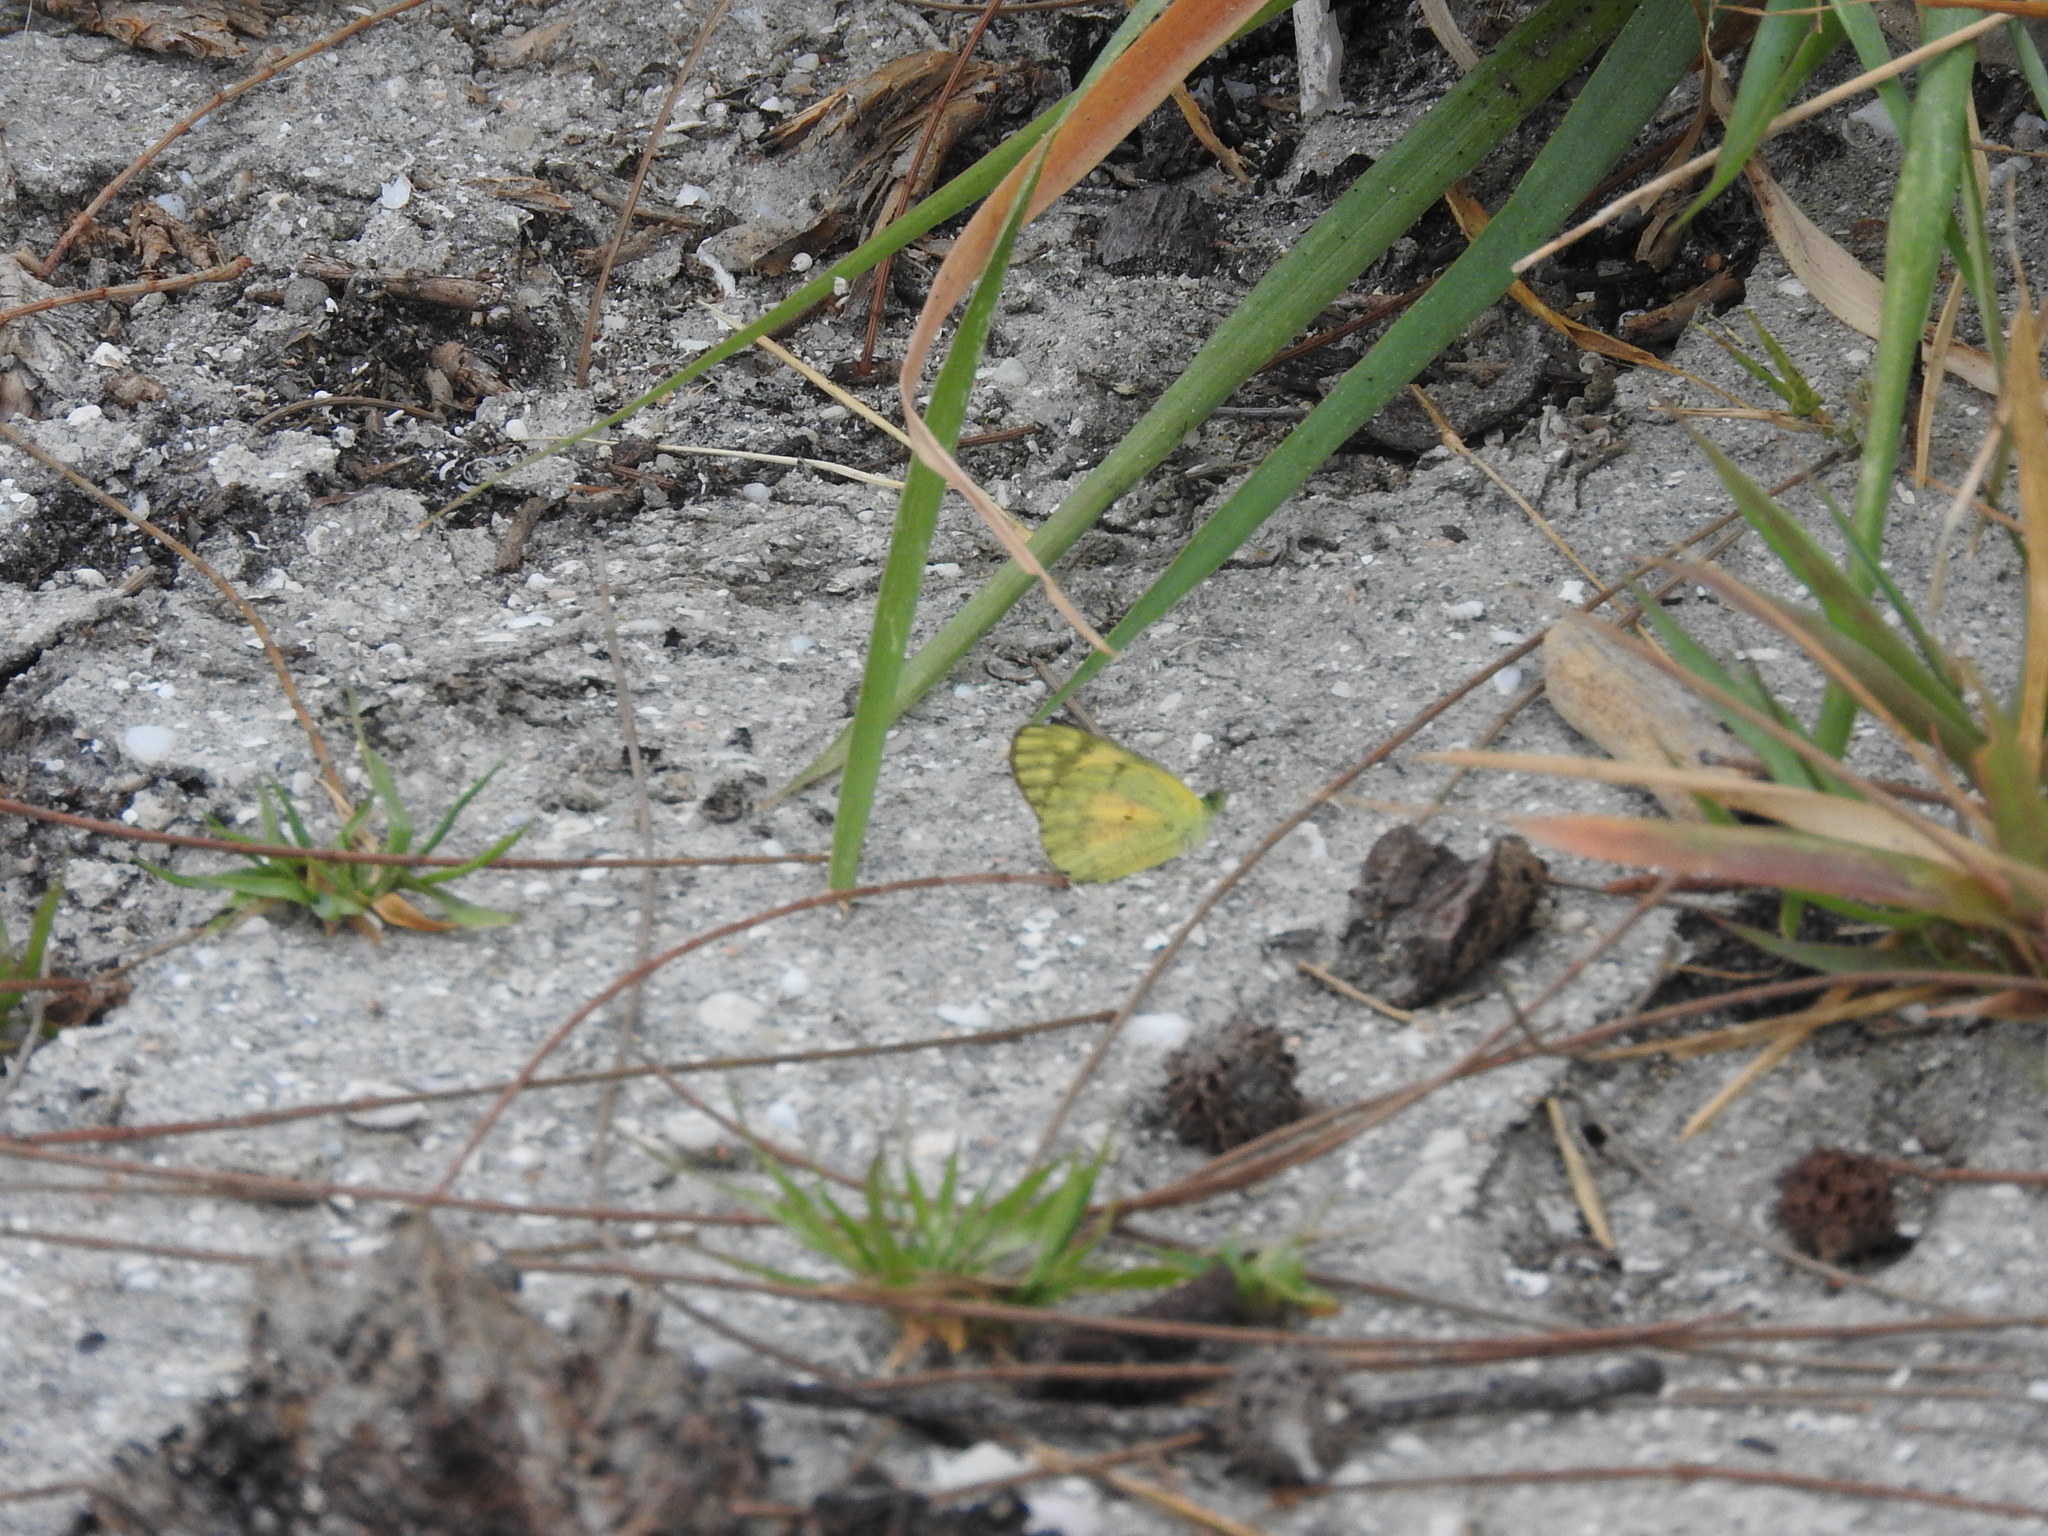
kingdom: Animalia
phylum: Arthropoda
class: Insecta
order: Lepidoptera
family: Pieridae
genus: Colotis
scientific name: Colotis amata
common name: Small salmon arab
